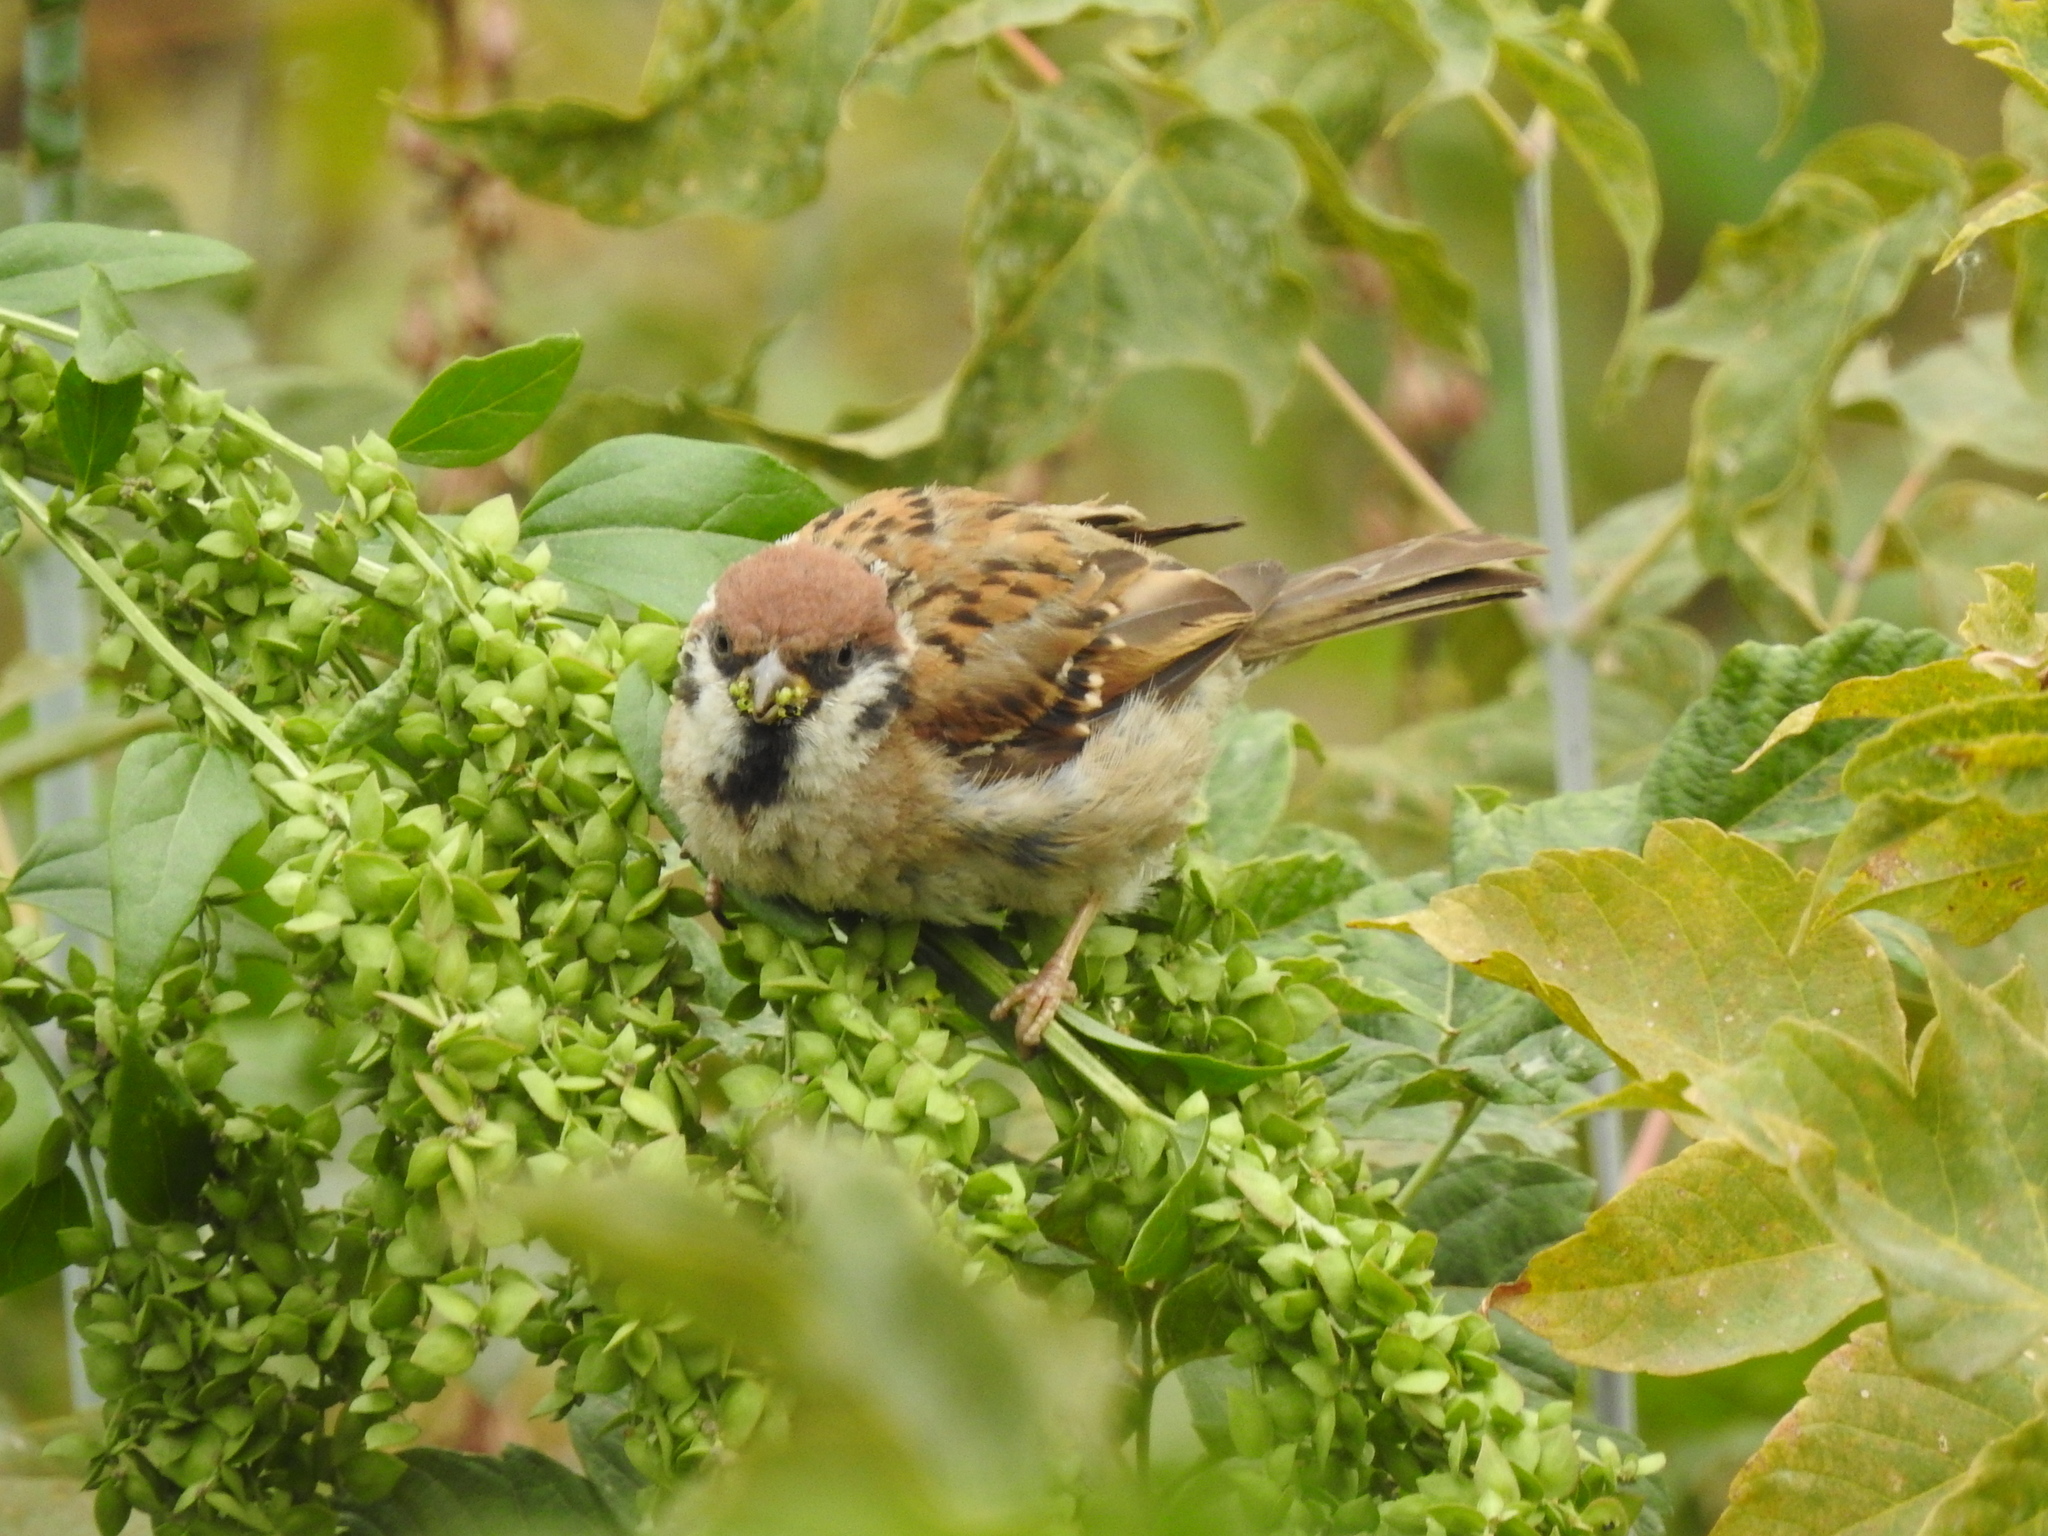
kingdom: Animalia
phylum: Chordata
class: Aves
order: Passeriformes
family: Passeridae
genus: Passer
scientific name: Passer montanus
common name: Eurasian tree sparrow
